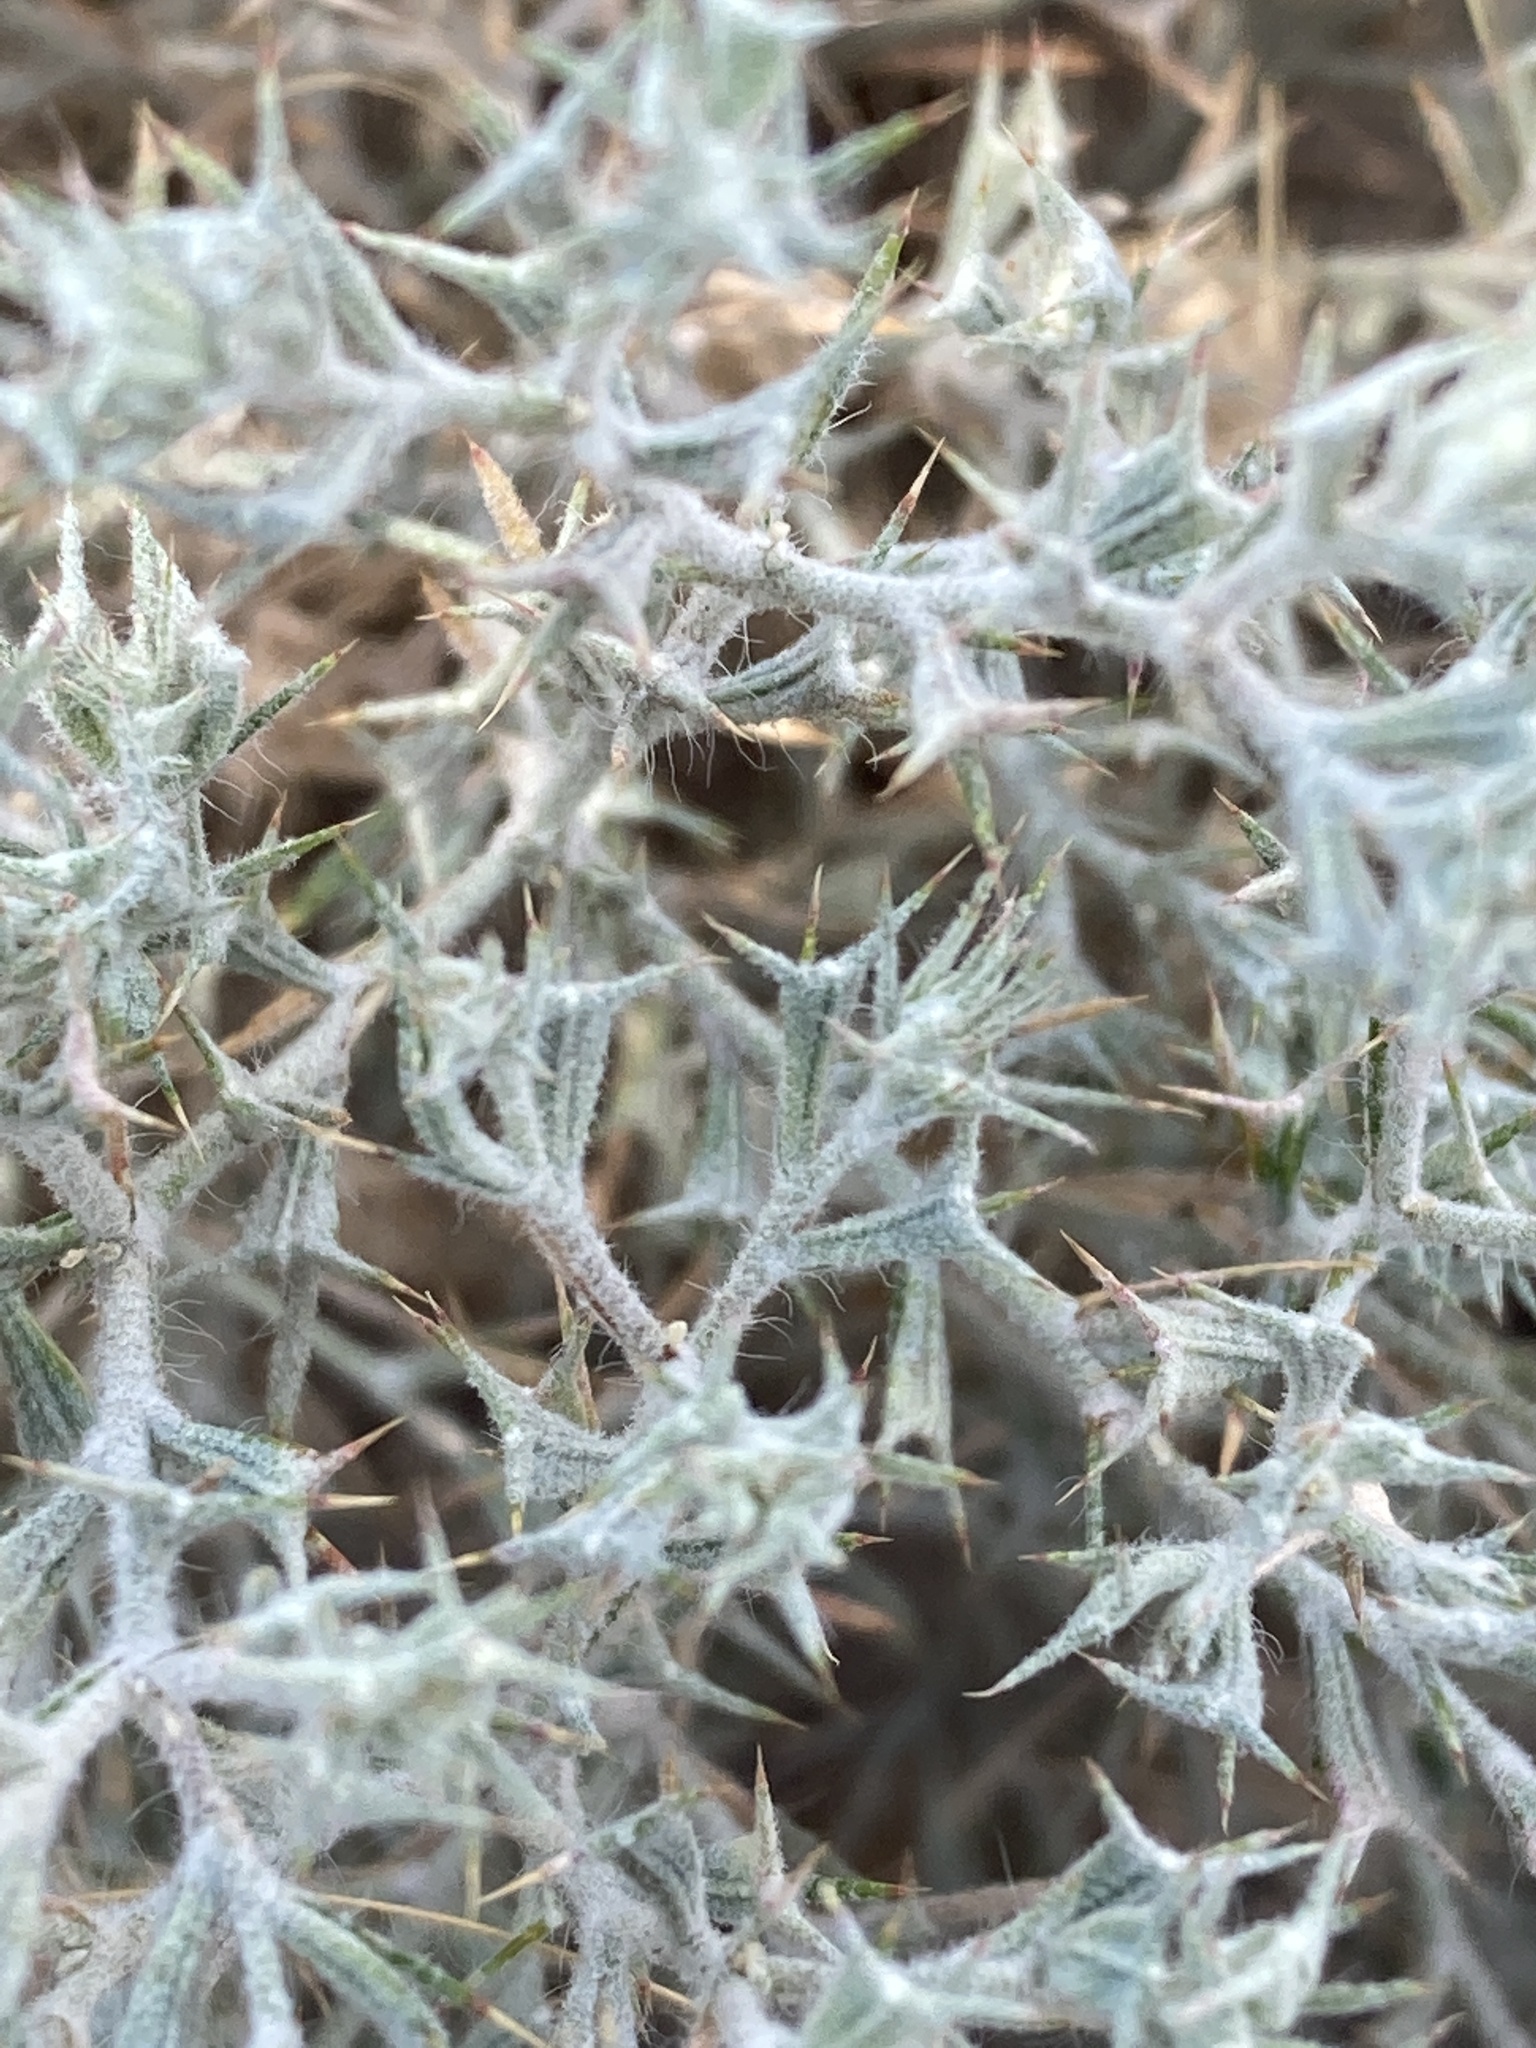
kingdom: Plantae
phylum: Tracheophyta
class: Magnoliopsida
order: Caryophyllales
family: Amaranthaceae
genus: Ceratocarpus
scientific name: Ceratocarpus arenarius
